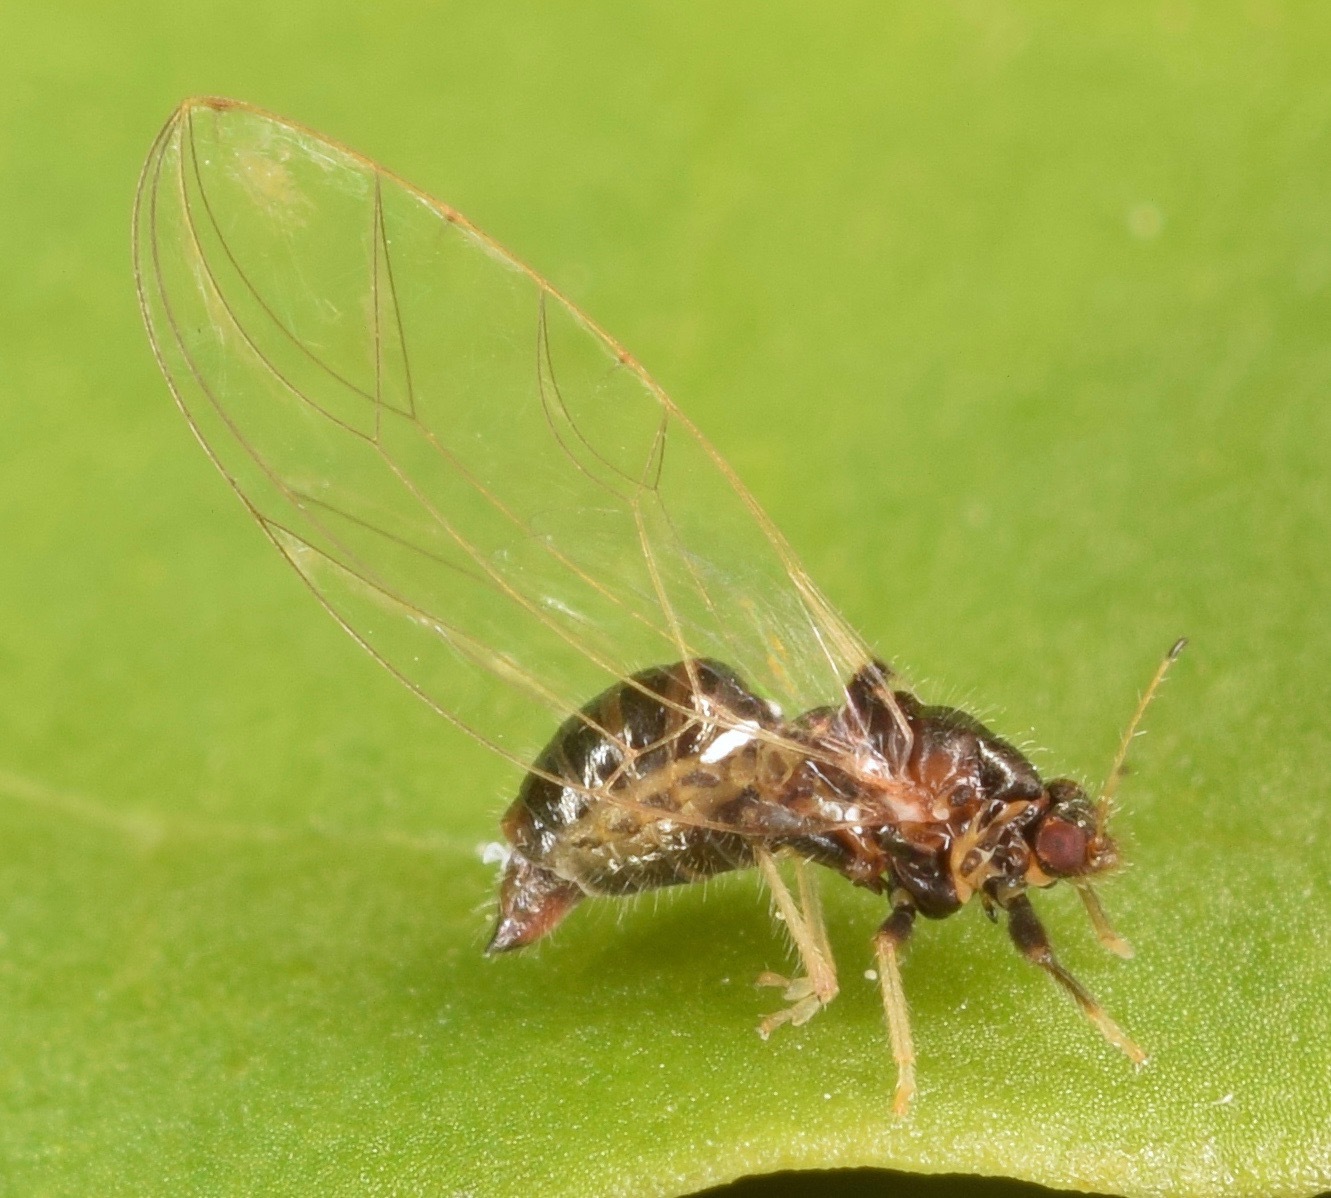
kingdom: Animalia
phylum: Arthropoda
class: Insecta
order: Hemiptera
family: Triozidae
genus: Baeoalitriozus
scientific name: Baeoalitriozus diospyri
